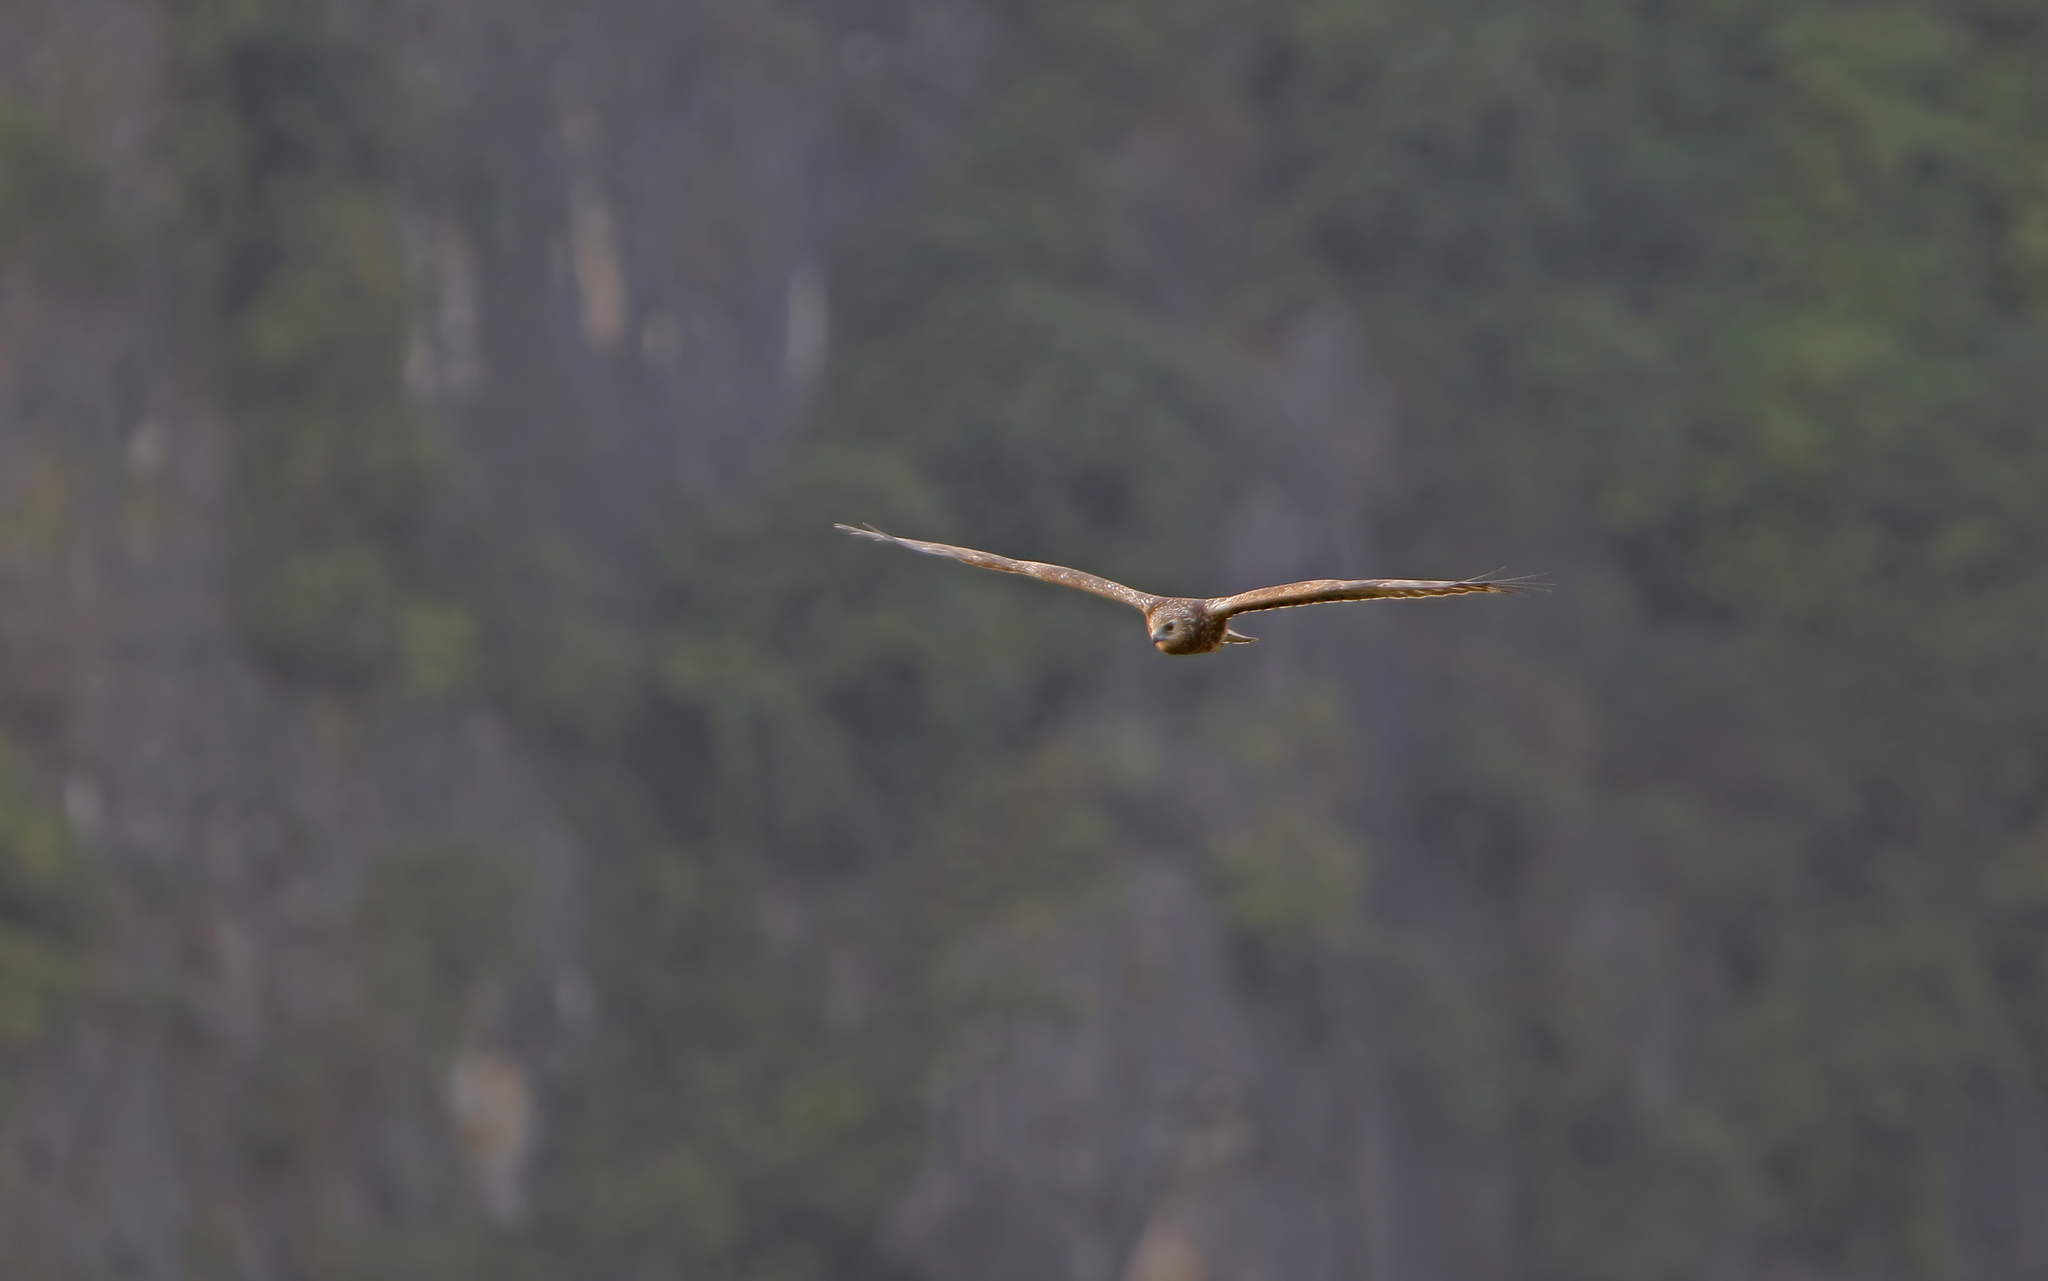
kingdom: Animalia
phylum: Chordata
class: Aves
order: Accipitriformes
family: Accipitridae
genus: Circus
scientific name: Circus spilonotus
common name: Eastern marsh-harrier
